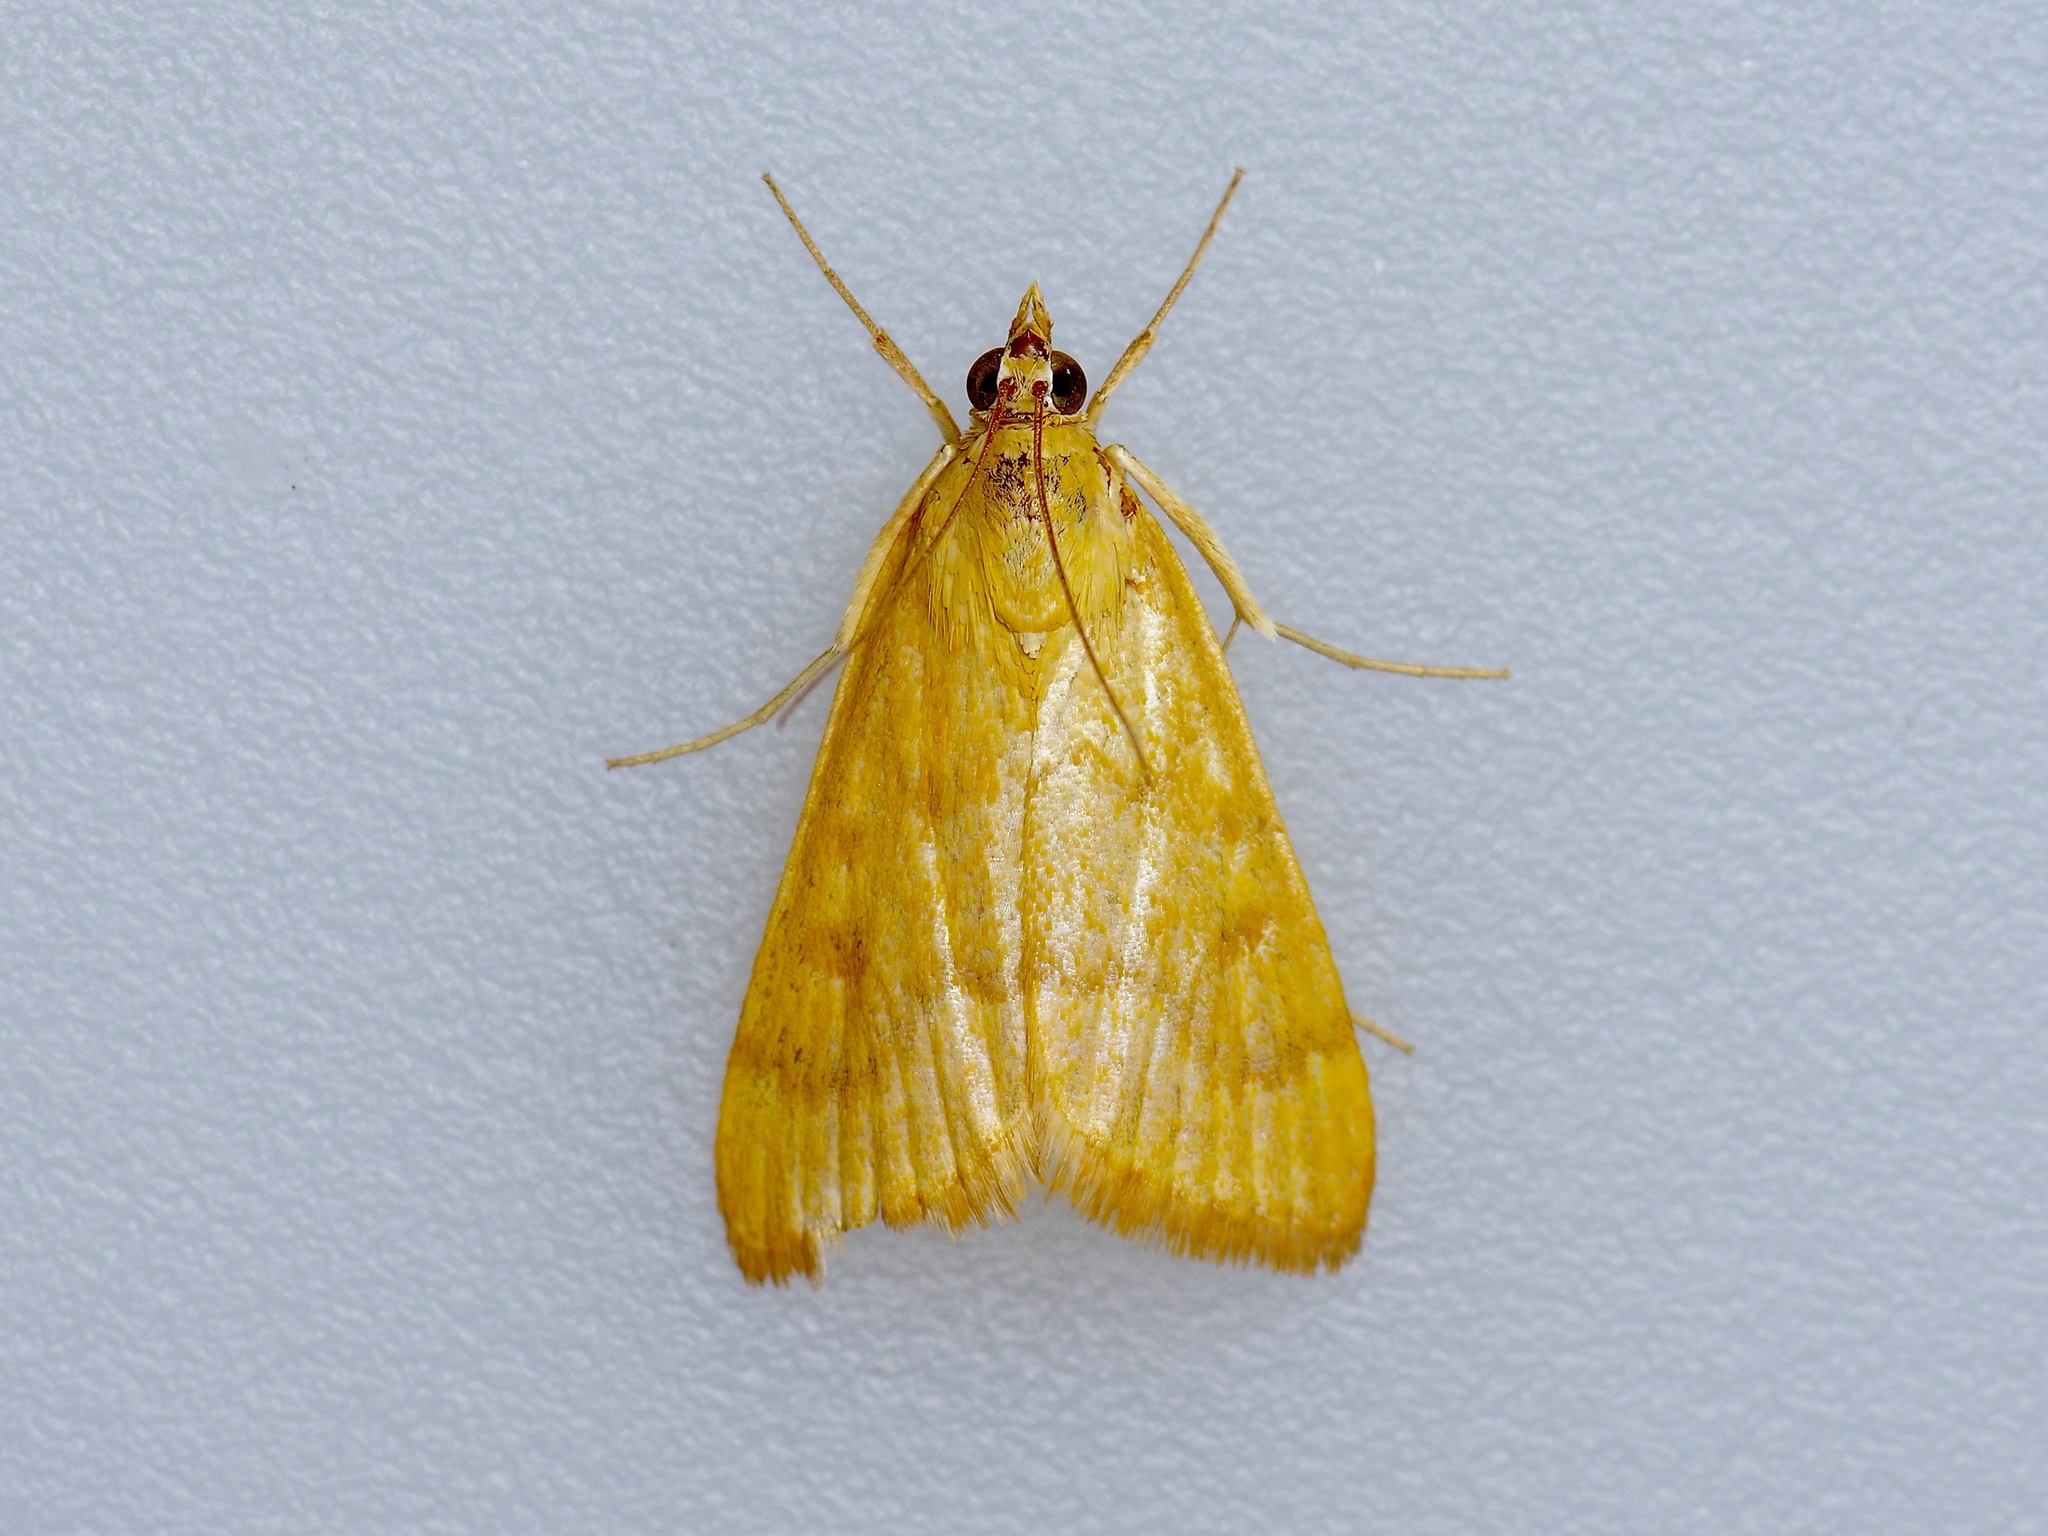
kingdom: Animalia
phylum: Arthropoda
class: Insecta
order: Lepidoptera
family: Crambidae
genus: Achyra
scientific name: Achyra rantalis
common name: Garden webworm
